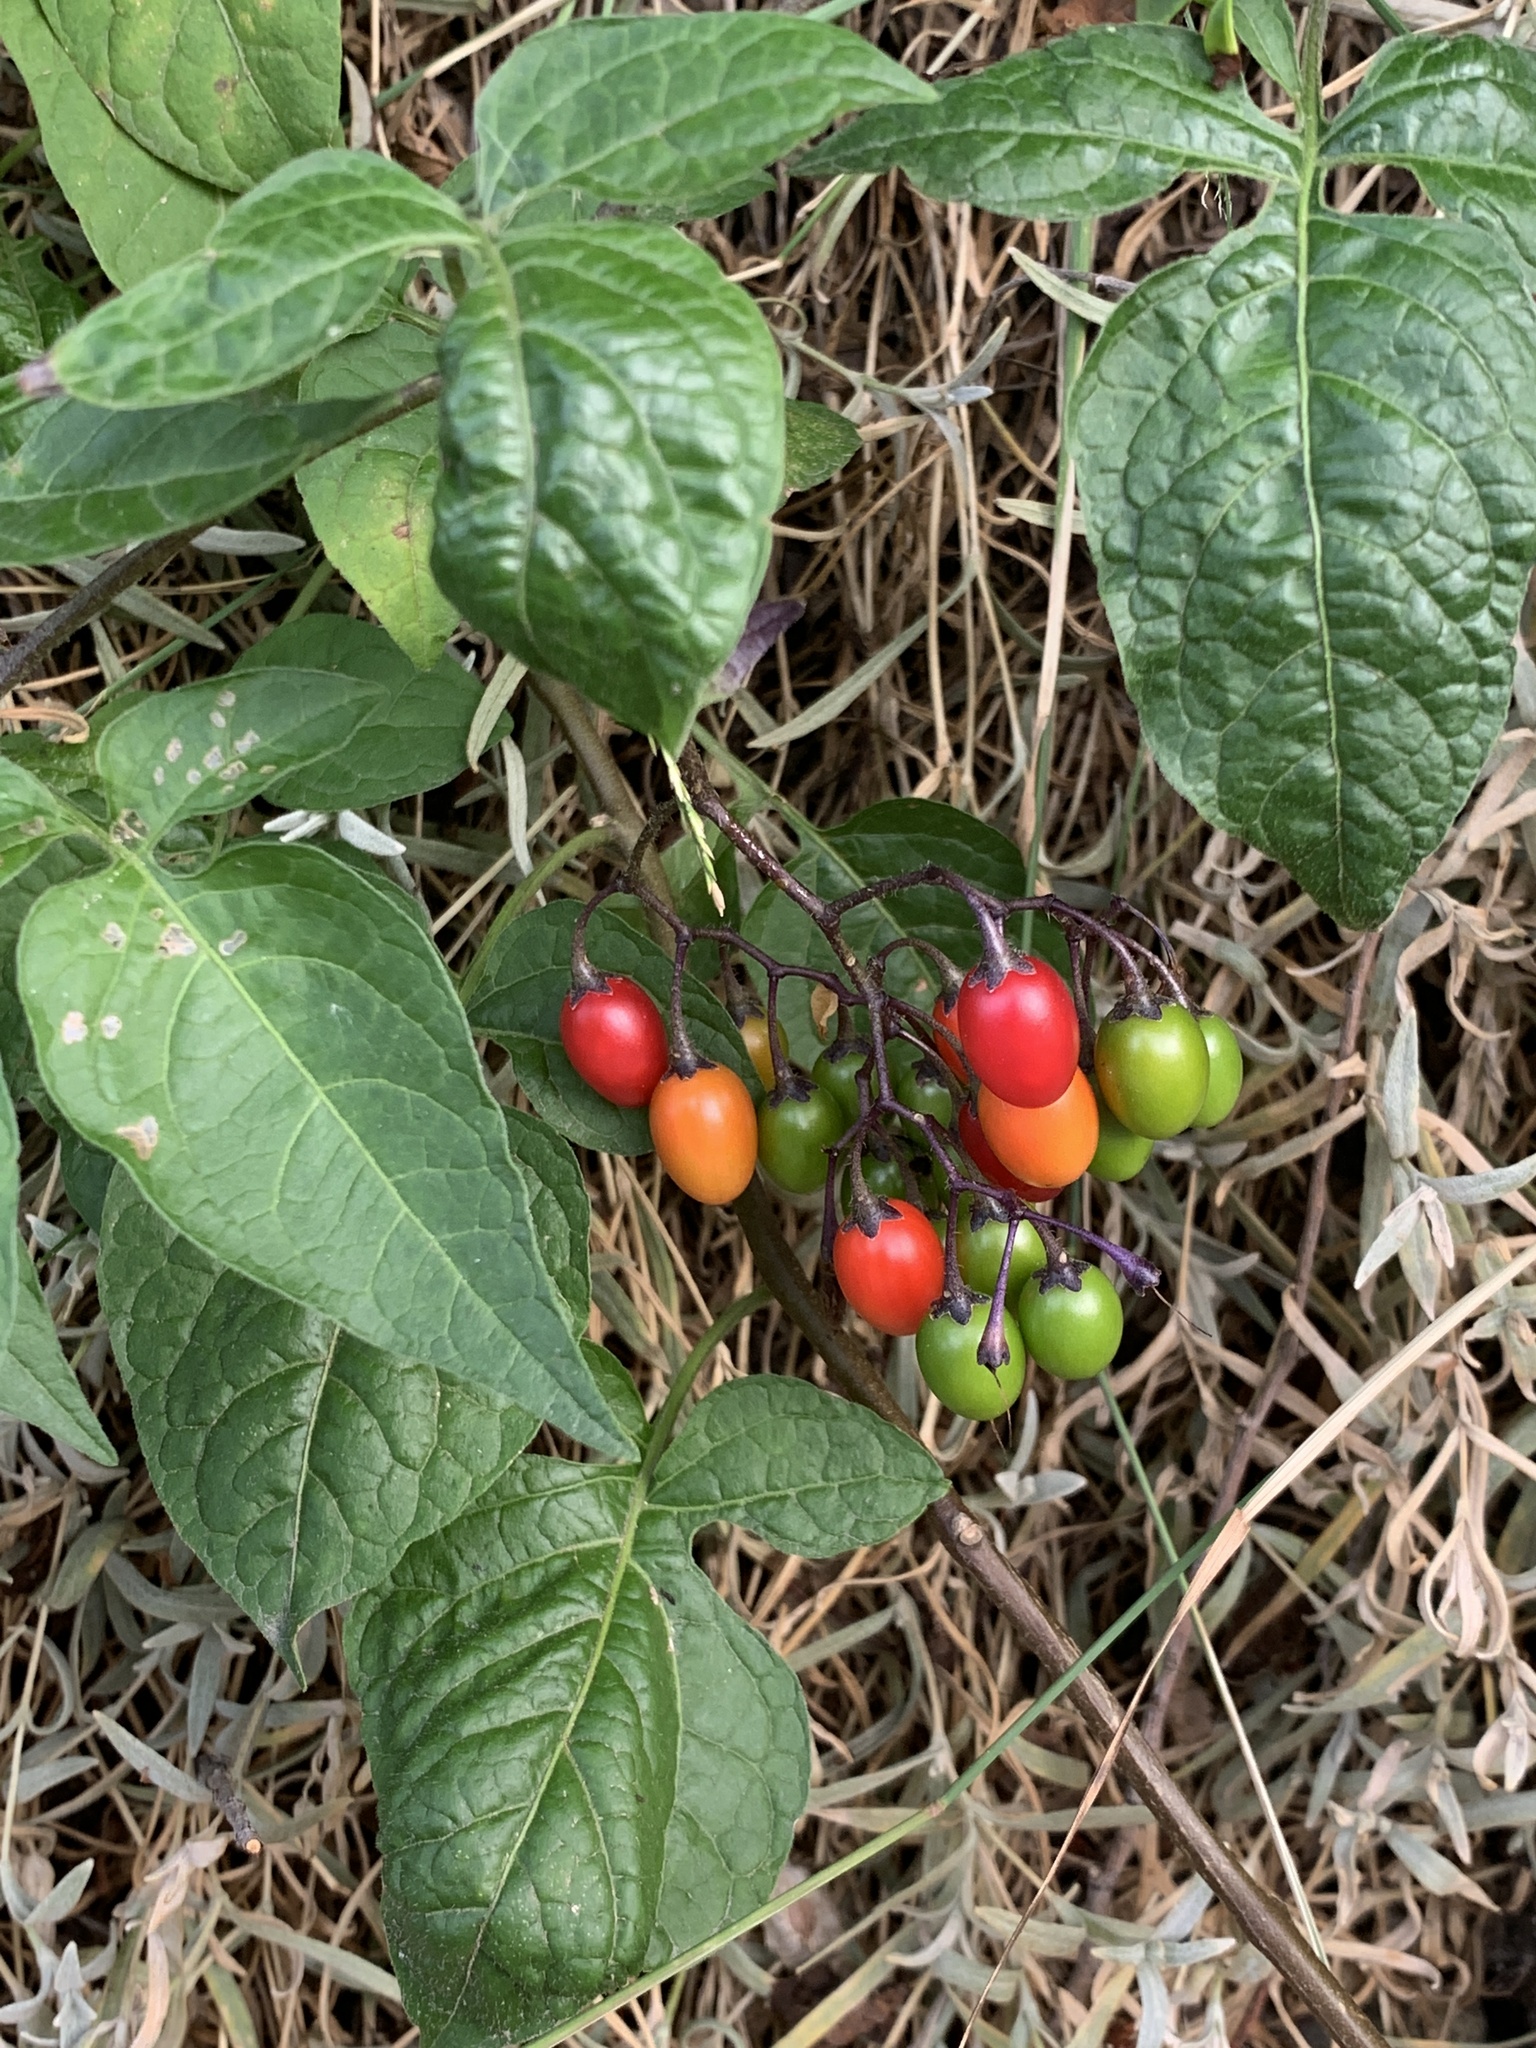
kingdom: Plantae
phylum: Tracheophyta
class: Magnoliopsida
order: Solanales
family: Solanaceae
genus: Solanum
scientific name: Solanum dulcamara
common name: Climbing nightshade
